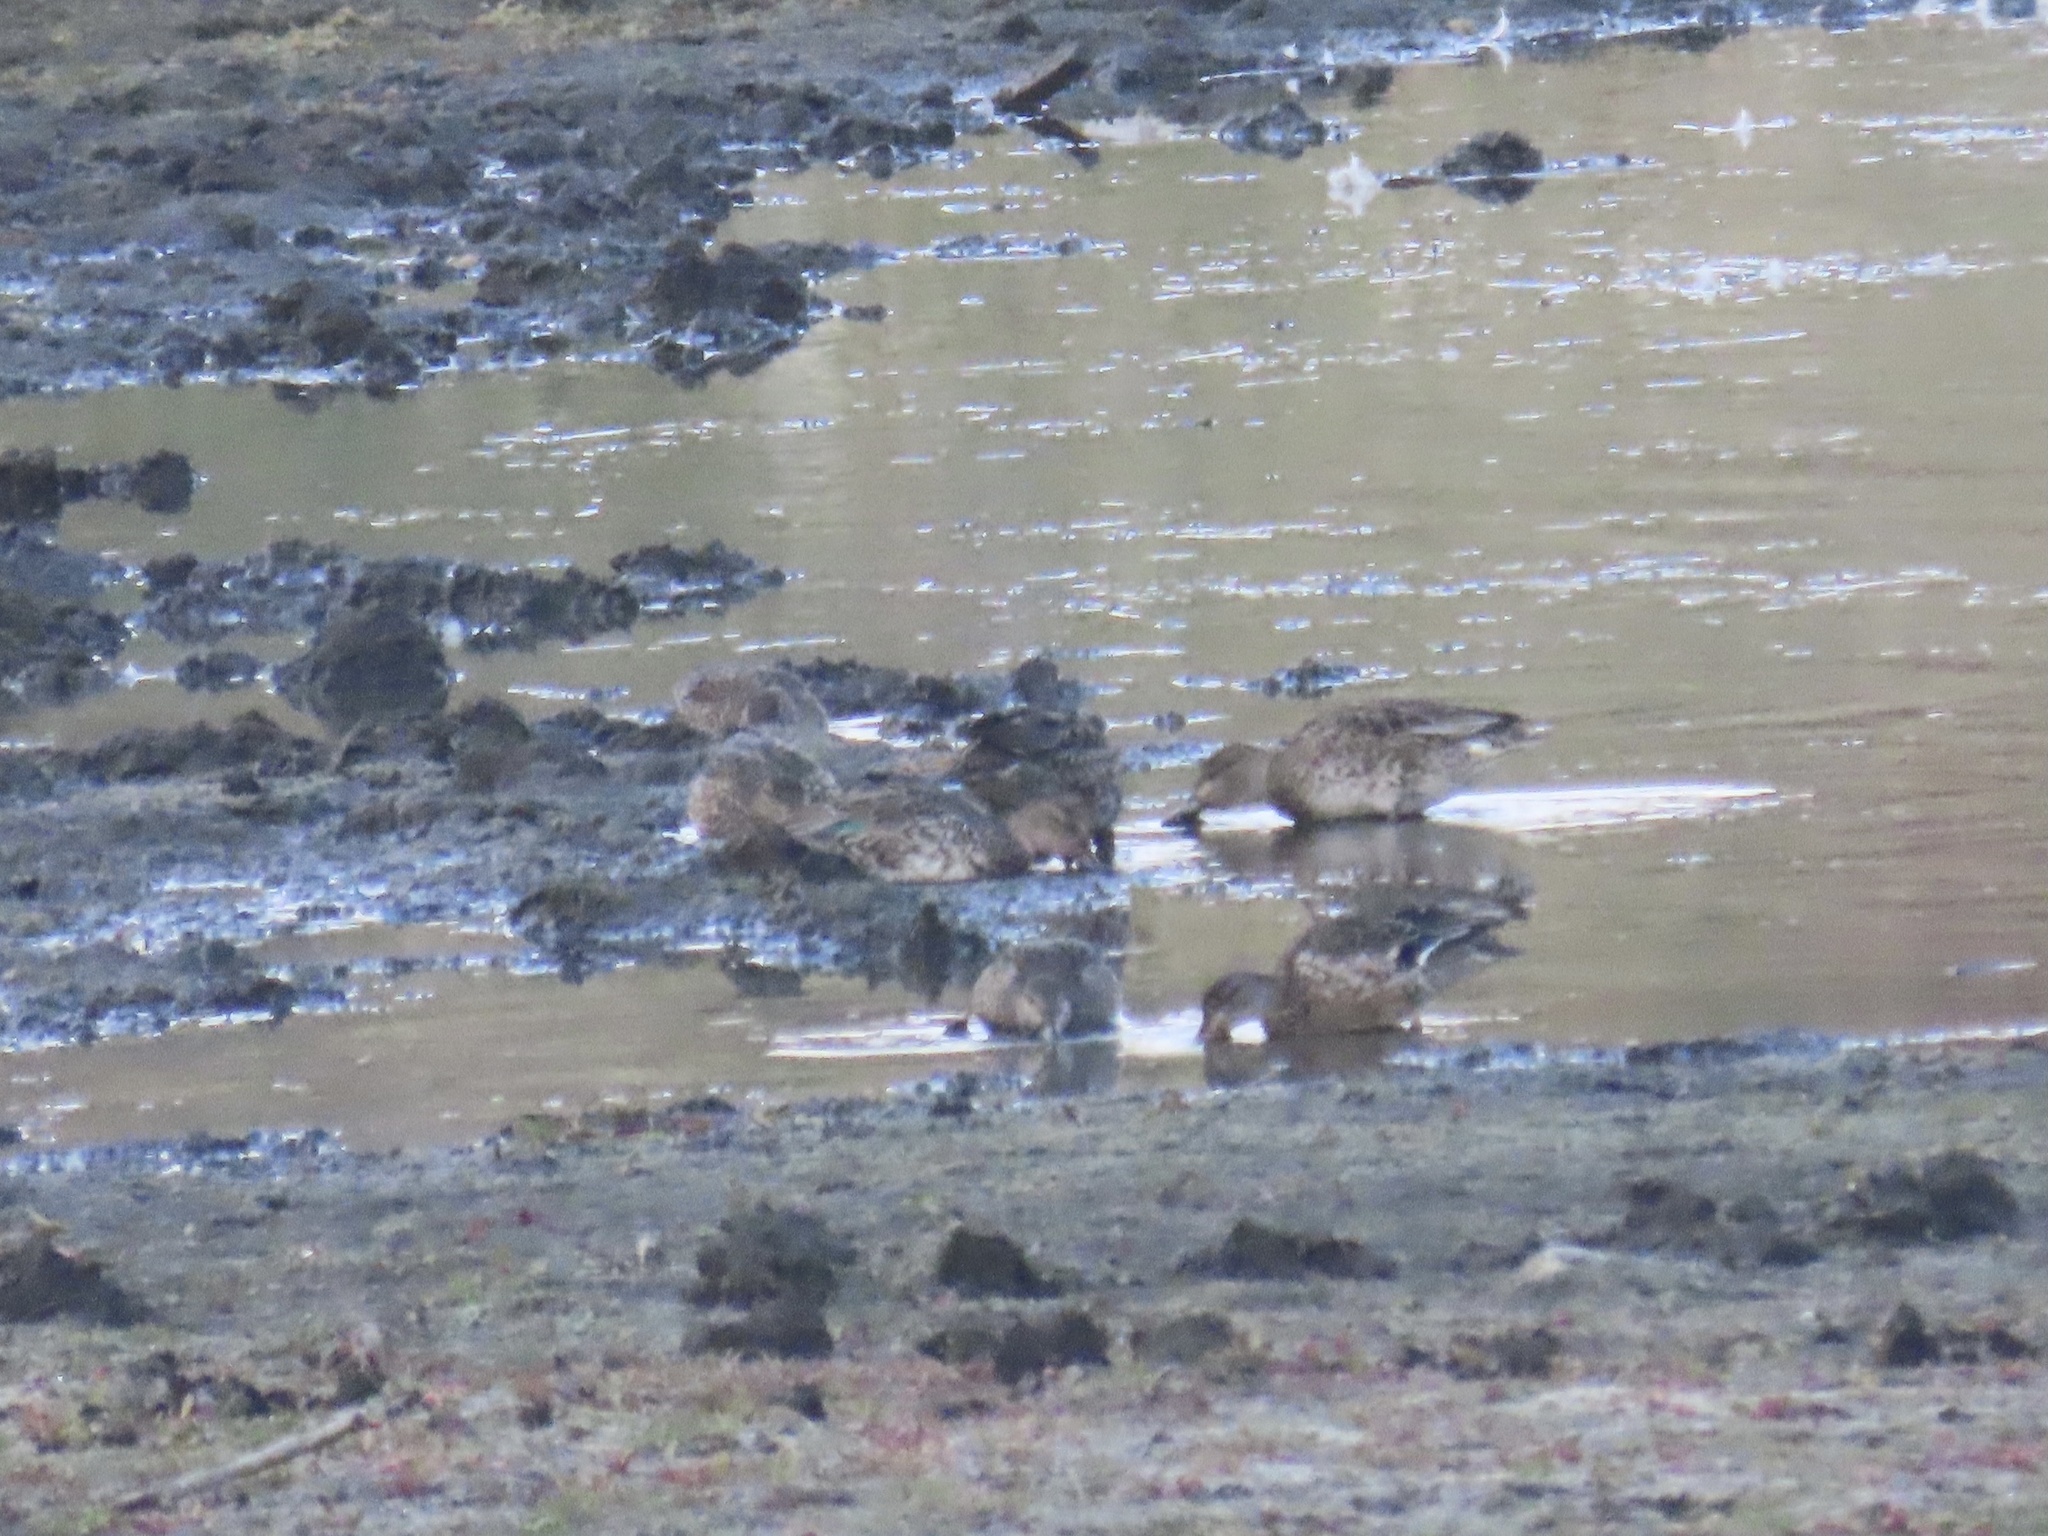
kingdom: Animalia
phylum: Chordata
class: Aves
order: Anseriformes
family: Anatidae
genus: Anas
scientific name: Anas crecca
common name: Eurasian teal
